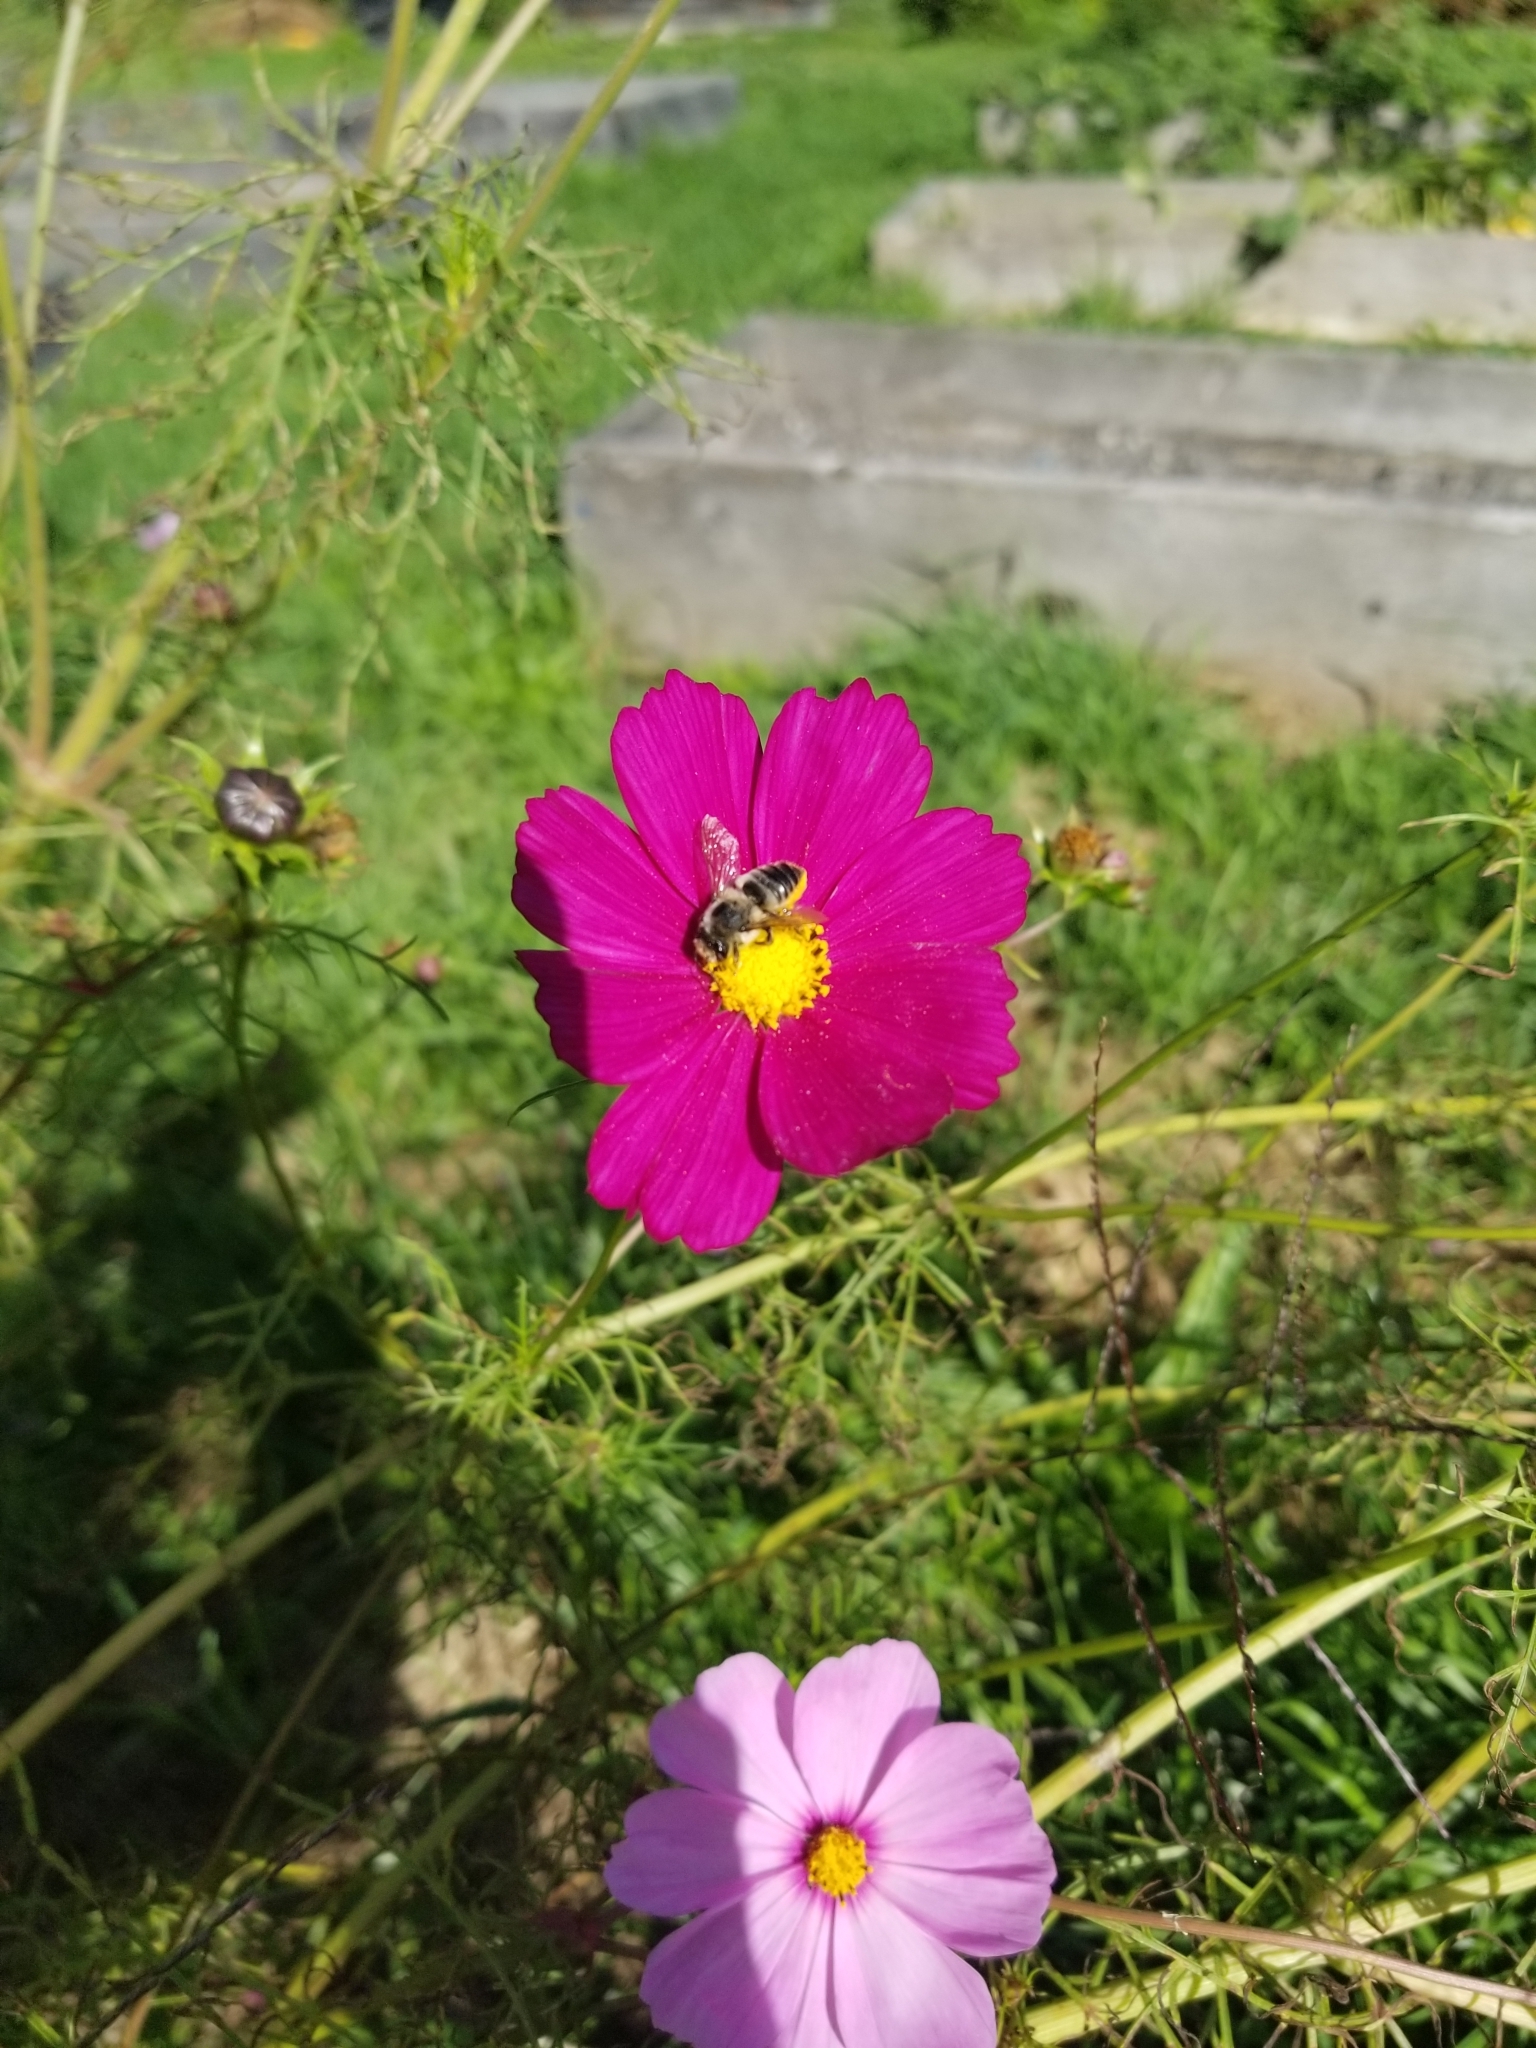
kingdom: Animalia
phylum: Arthropoda
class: Insecta
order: Hymenoptera
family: Megachilidae
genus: Megachile
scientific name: Megachile latimanus
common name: Leafcutting bee
